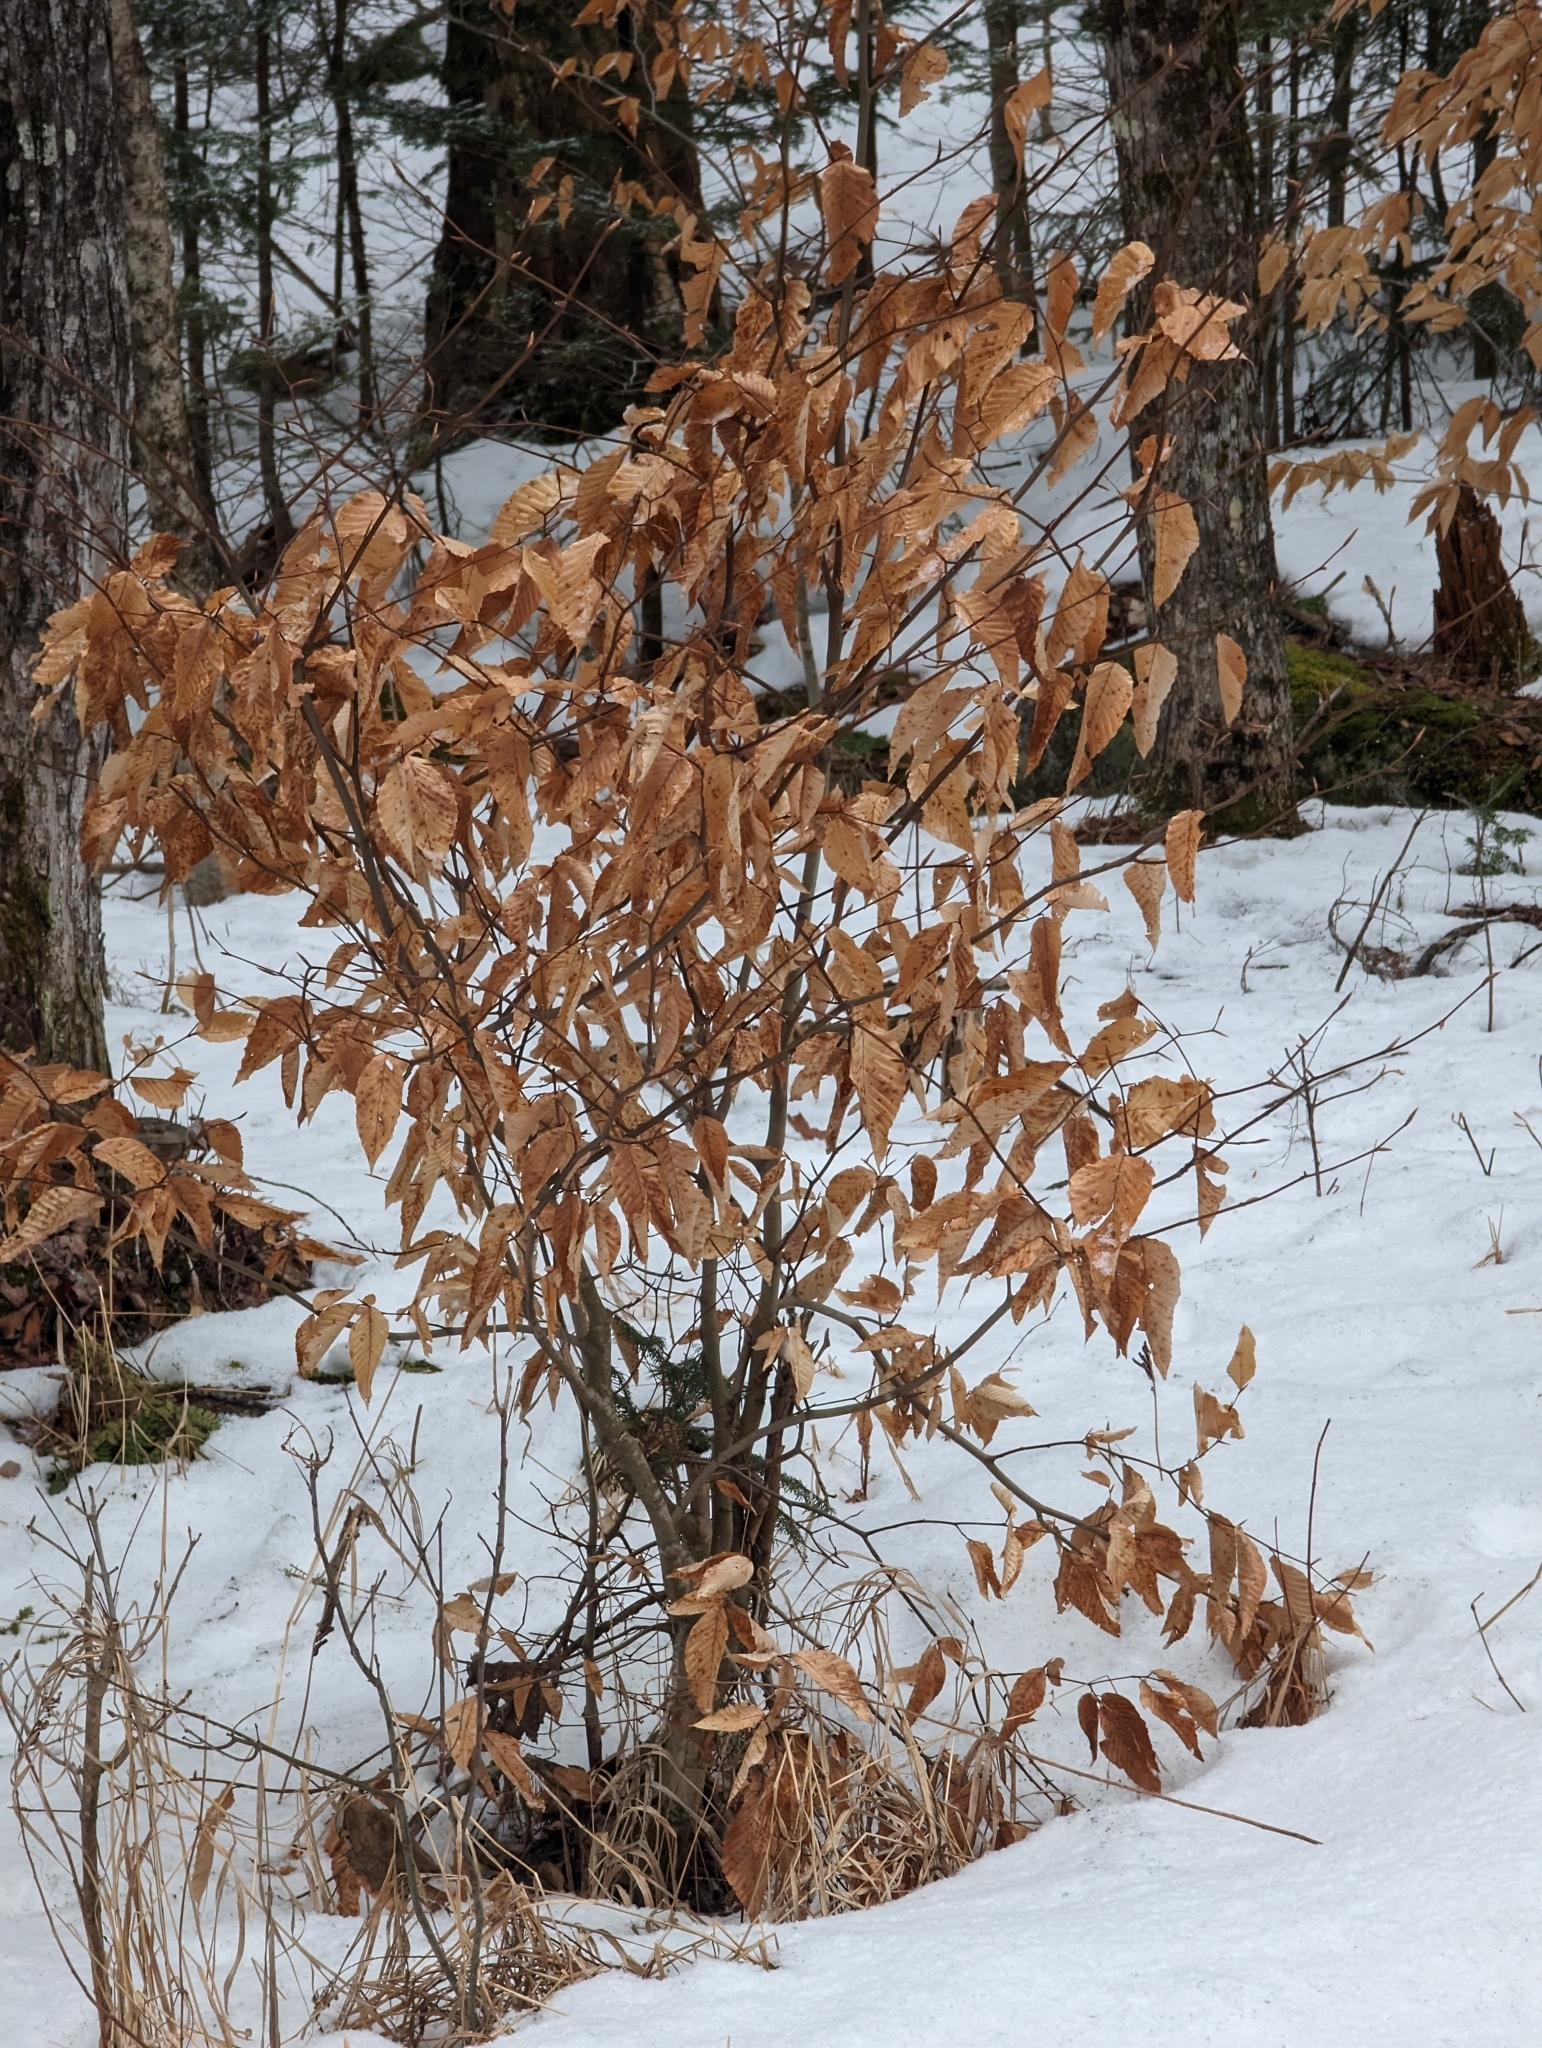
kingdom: Plantae
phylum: Tracheophyta
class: Magnoliopsida
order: Fagales
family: Fagaceae
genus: Fagus
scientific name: Fagus grandifolia
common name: American beech
